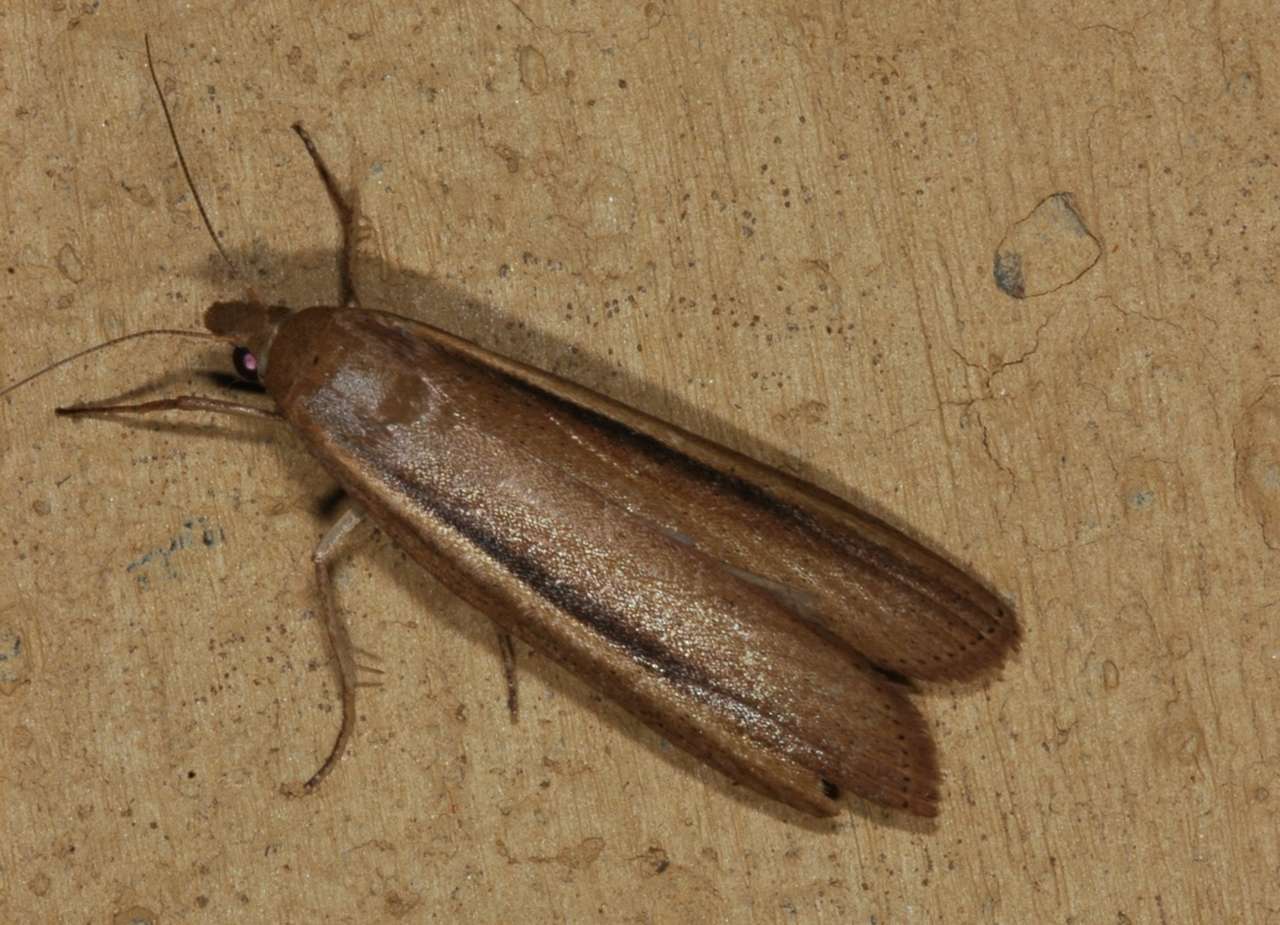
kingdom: Animalia
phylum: Arthropoda
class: Insecta
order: Lepidoptera
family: Pyralidae
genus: Meyriccia
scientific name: Meyriccia latro
